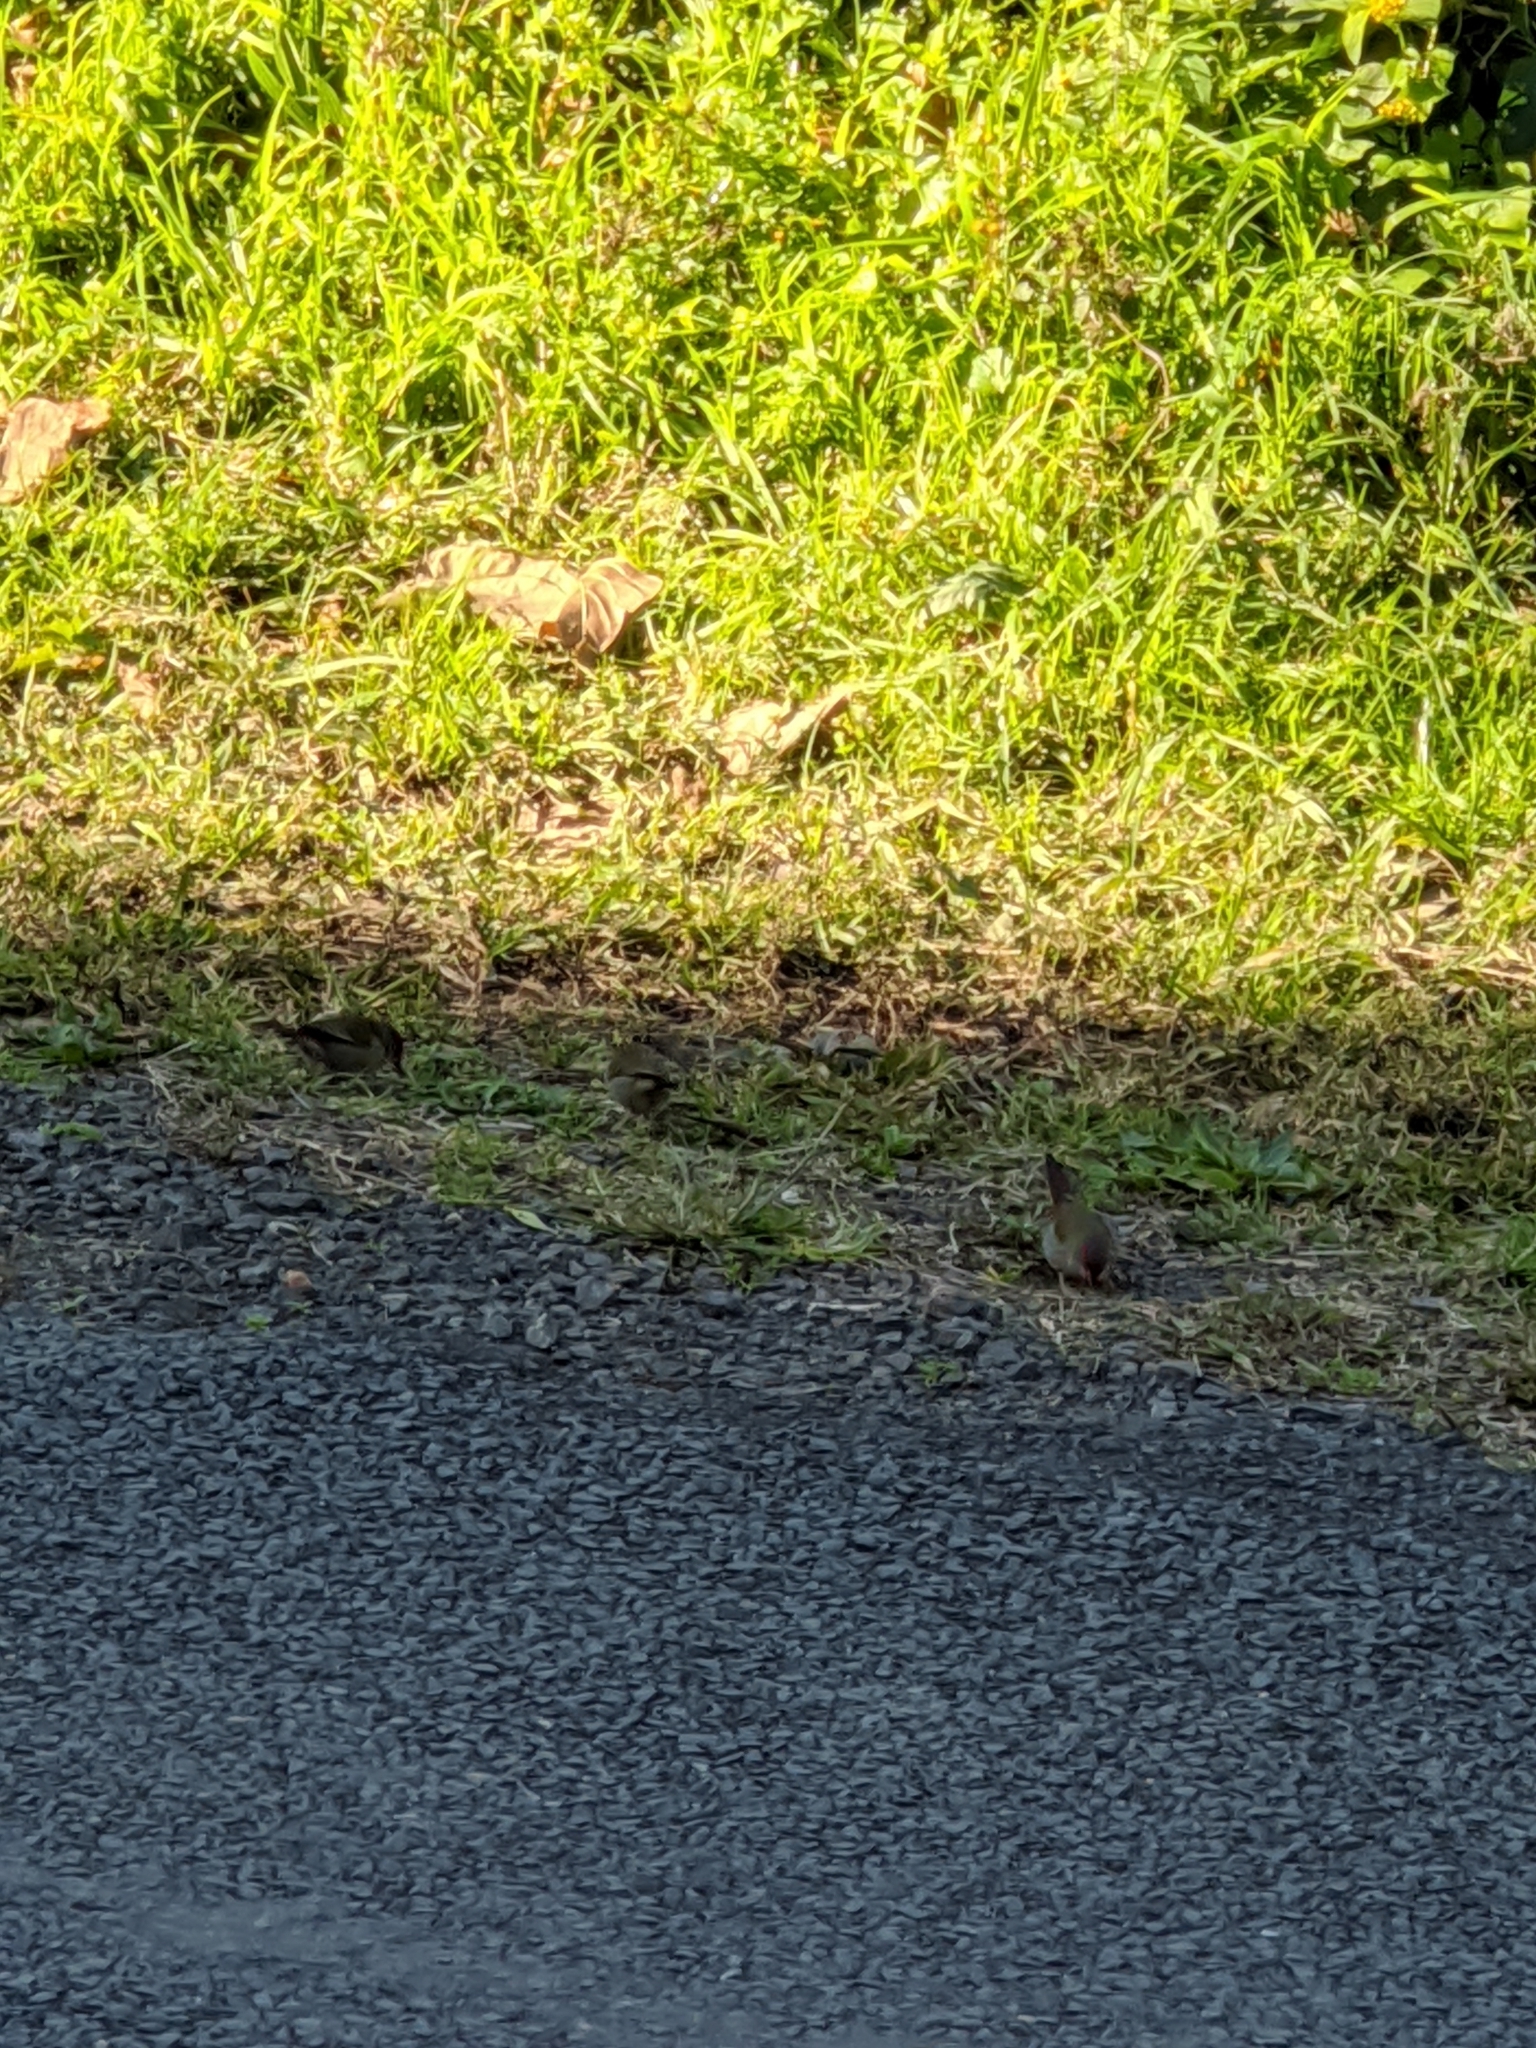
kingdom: Animalia
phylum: Chordata
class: Aves
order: Passeriformes
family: Estrildidae
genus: Neochmia
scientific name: Neochmia temporalis
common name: Red-browed finch
